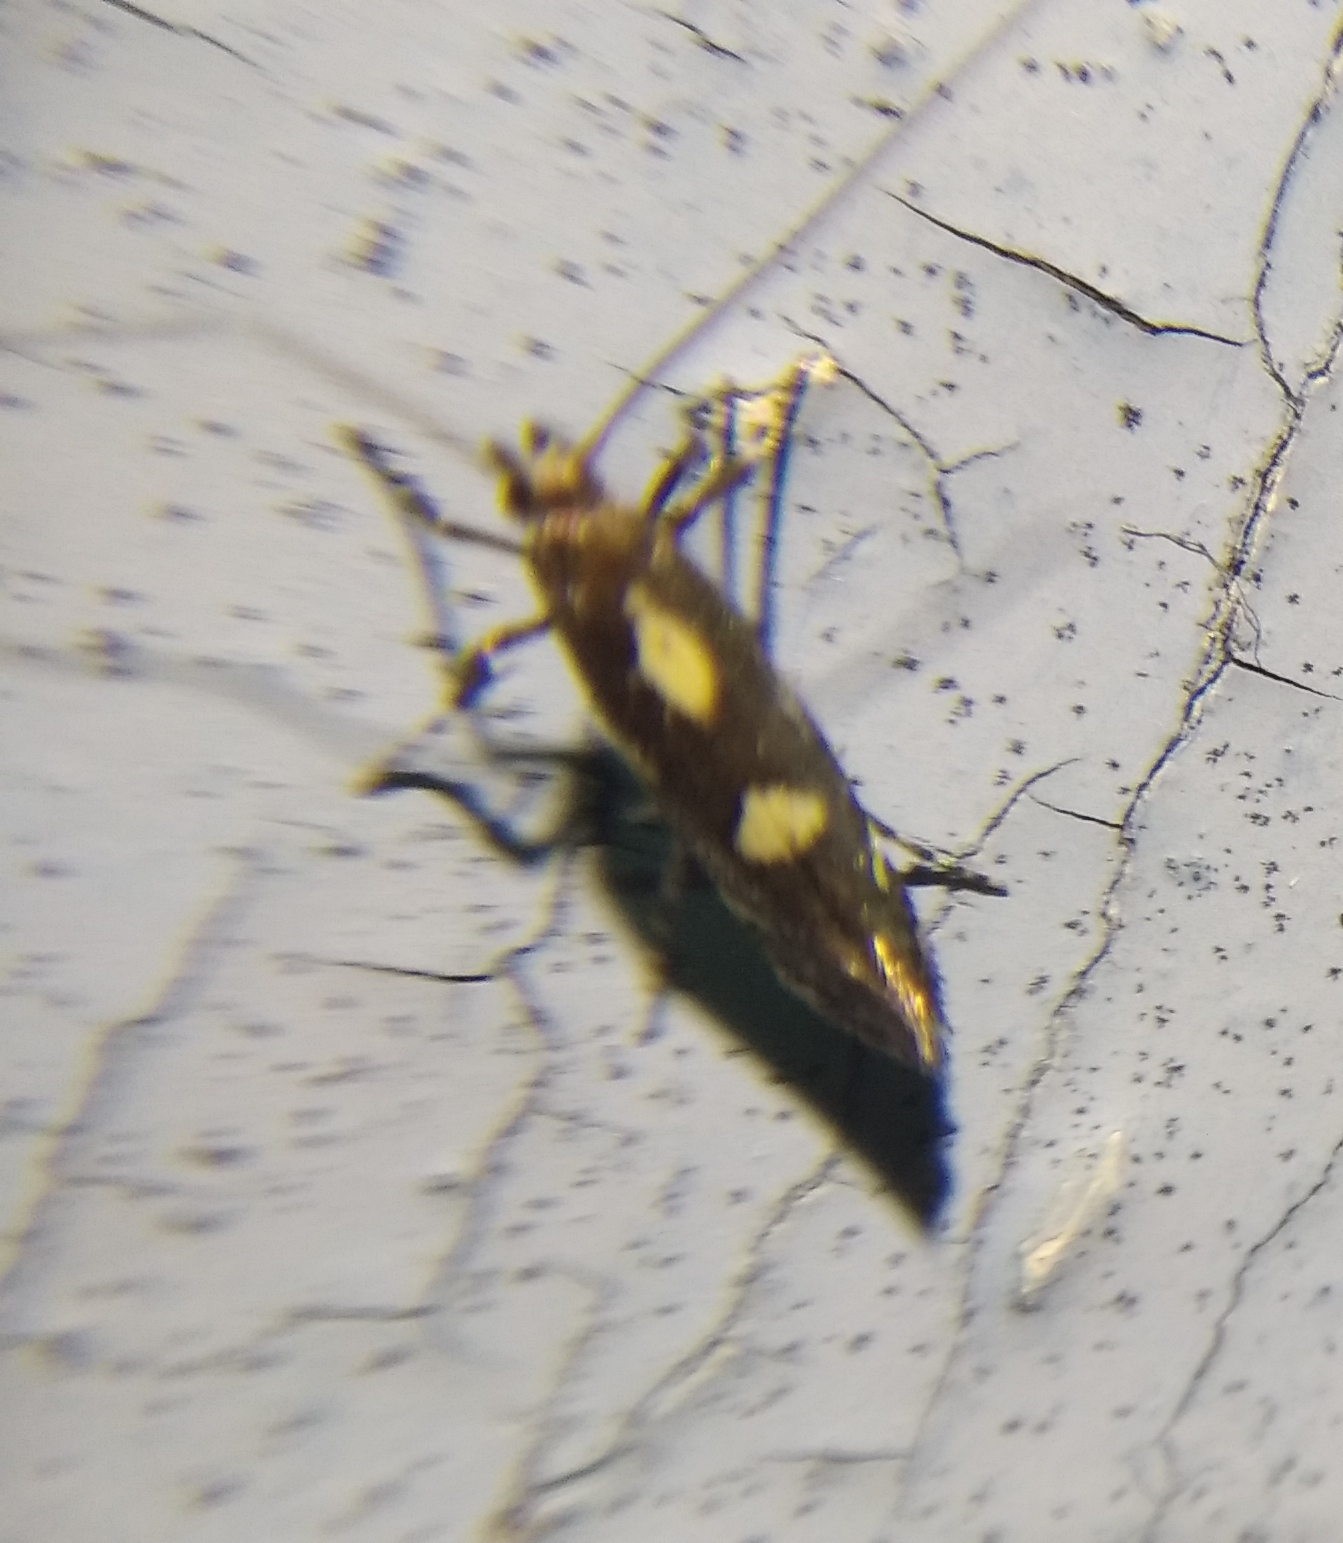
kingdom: Animalia
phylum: Arthropoda
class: Insecta
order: Lepidoptera
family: Gracillariidae
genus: Calybites
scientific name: Calybites phasianipennella
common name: Little slender
